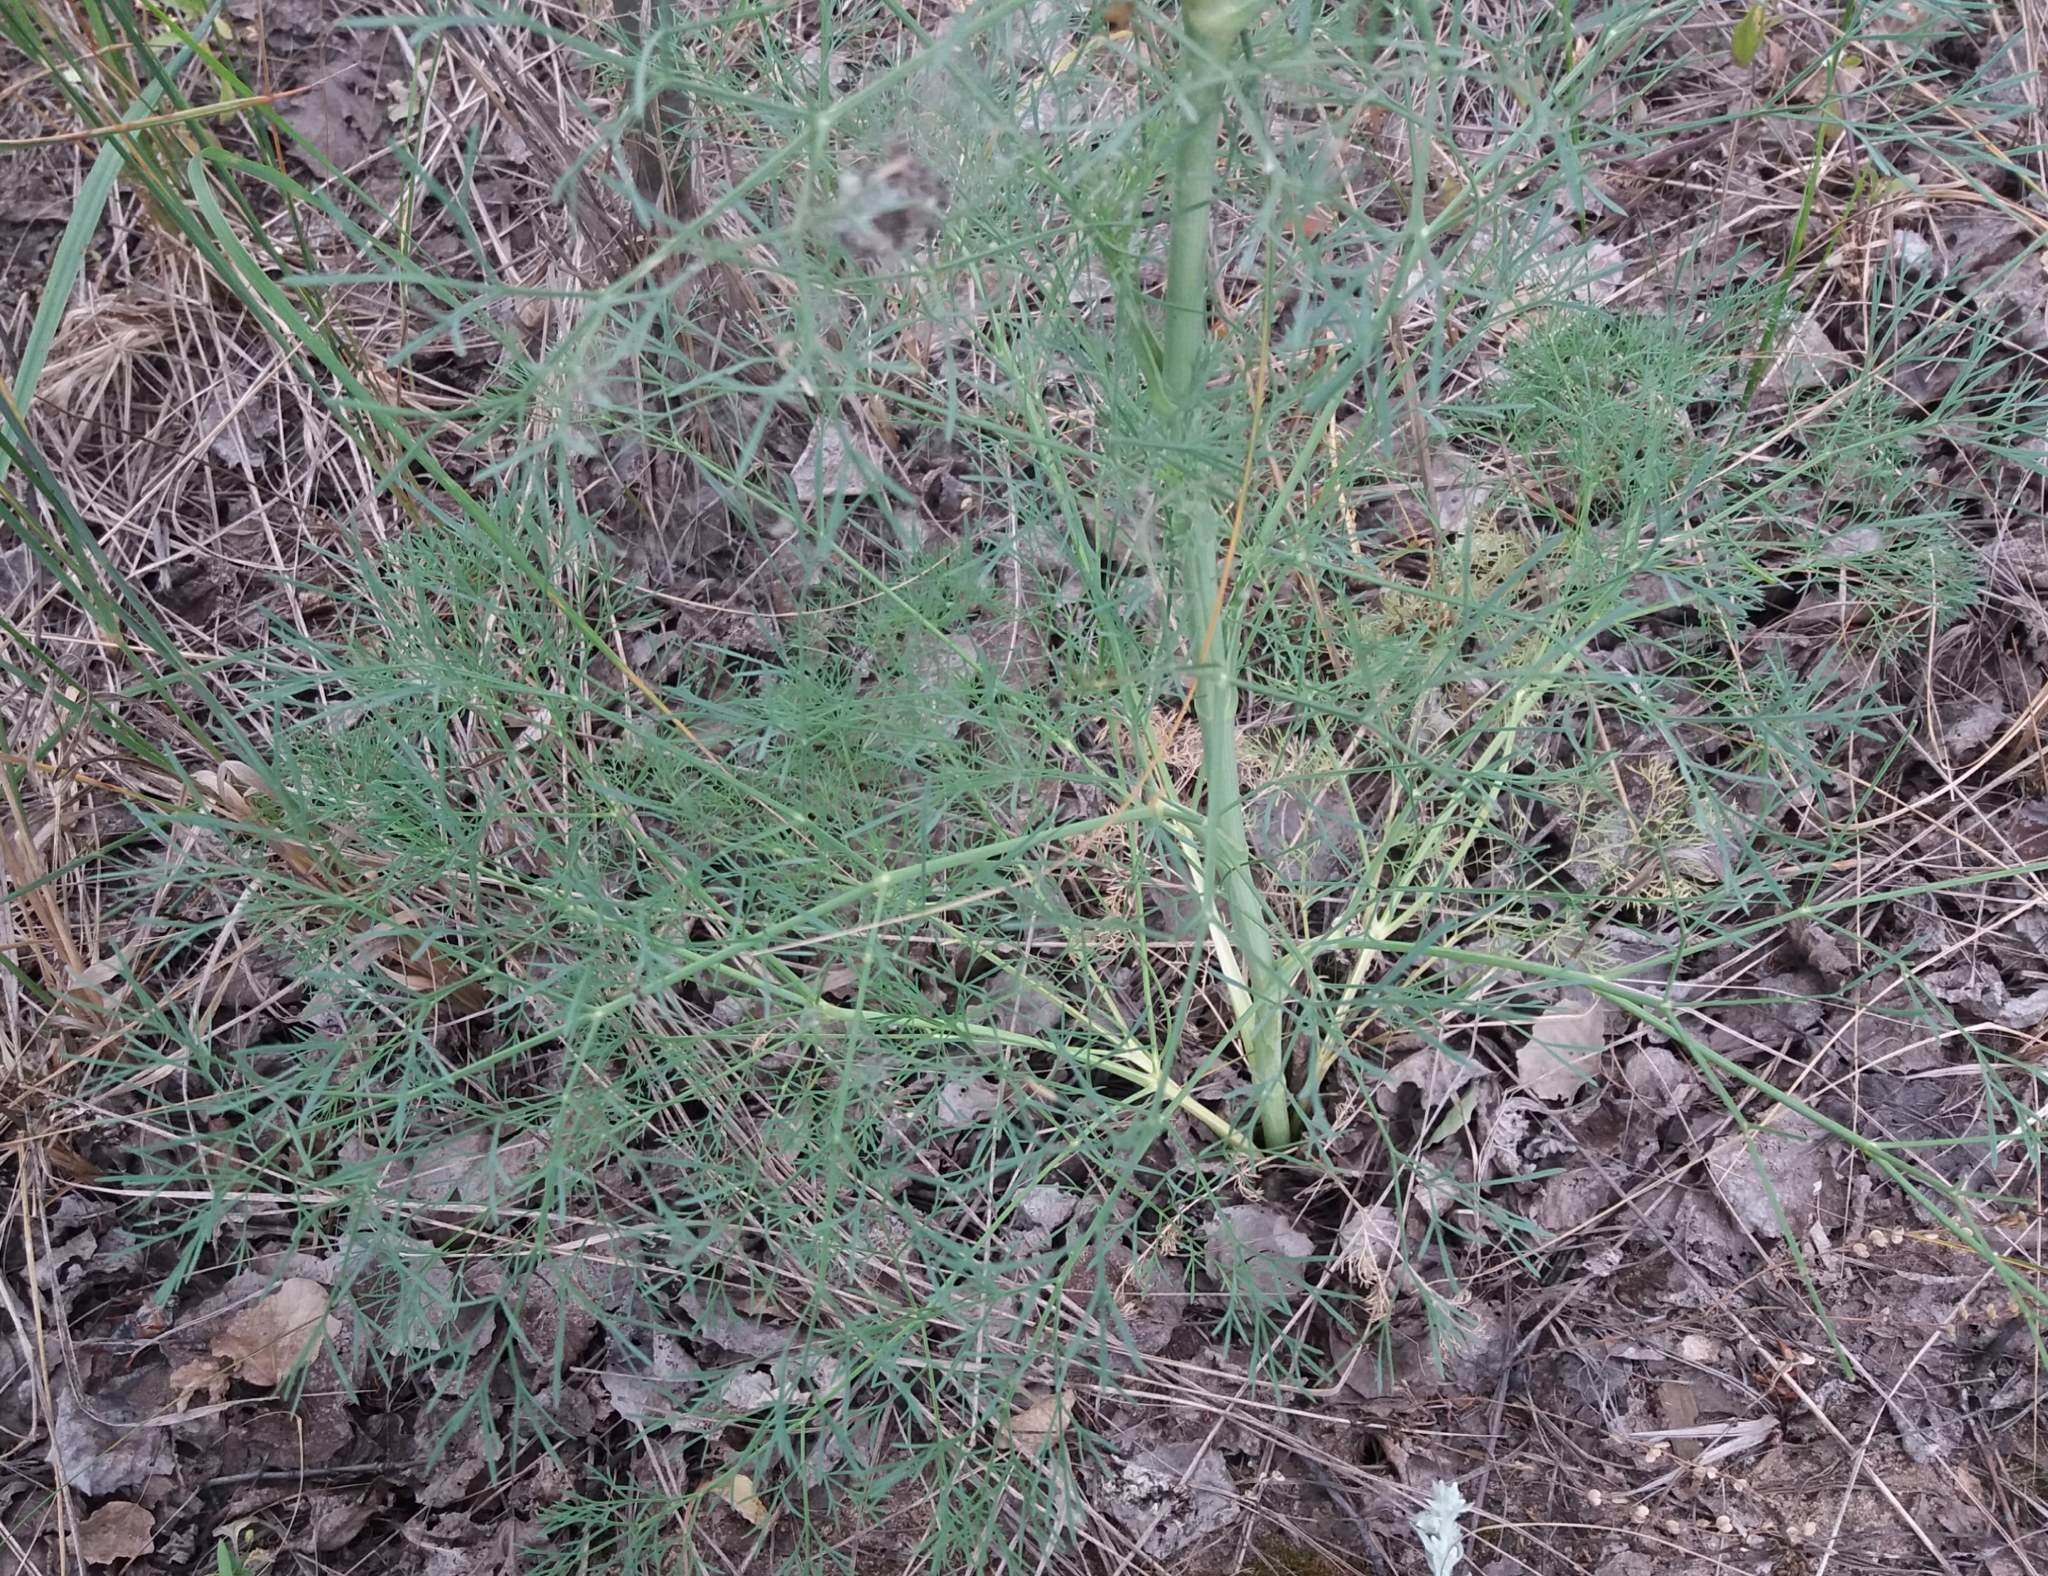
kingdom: Plantae
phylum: Tracheophyta
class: Magnoliopsida
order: Apiales
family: Apiaceae
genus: Seseli
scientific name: Seseli arenarium
